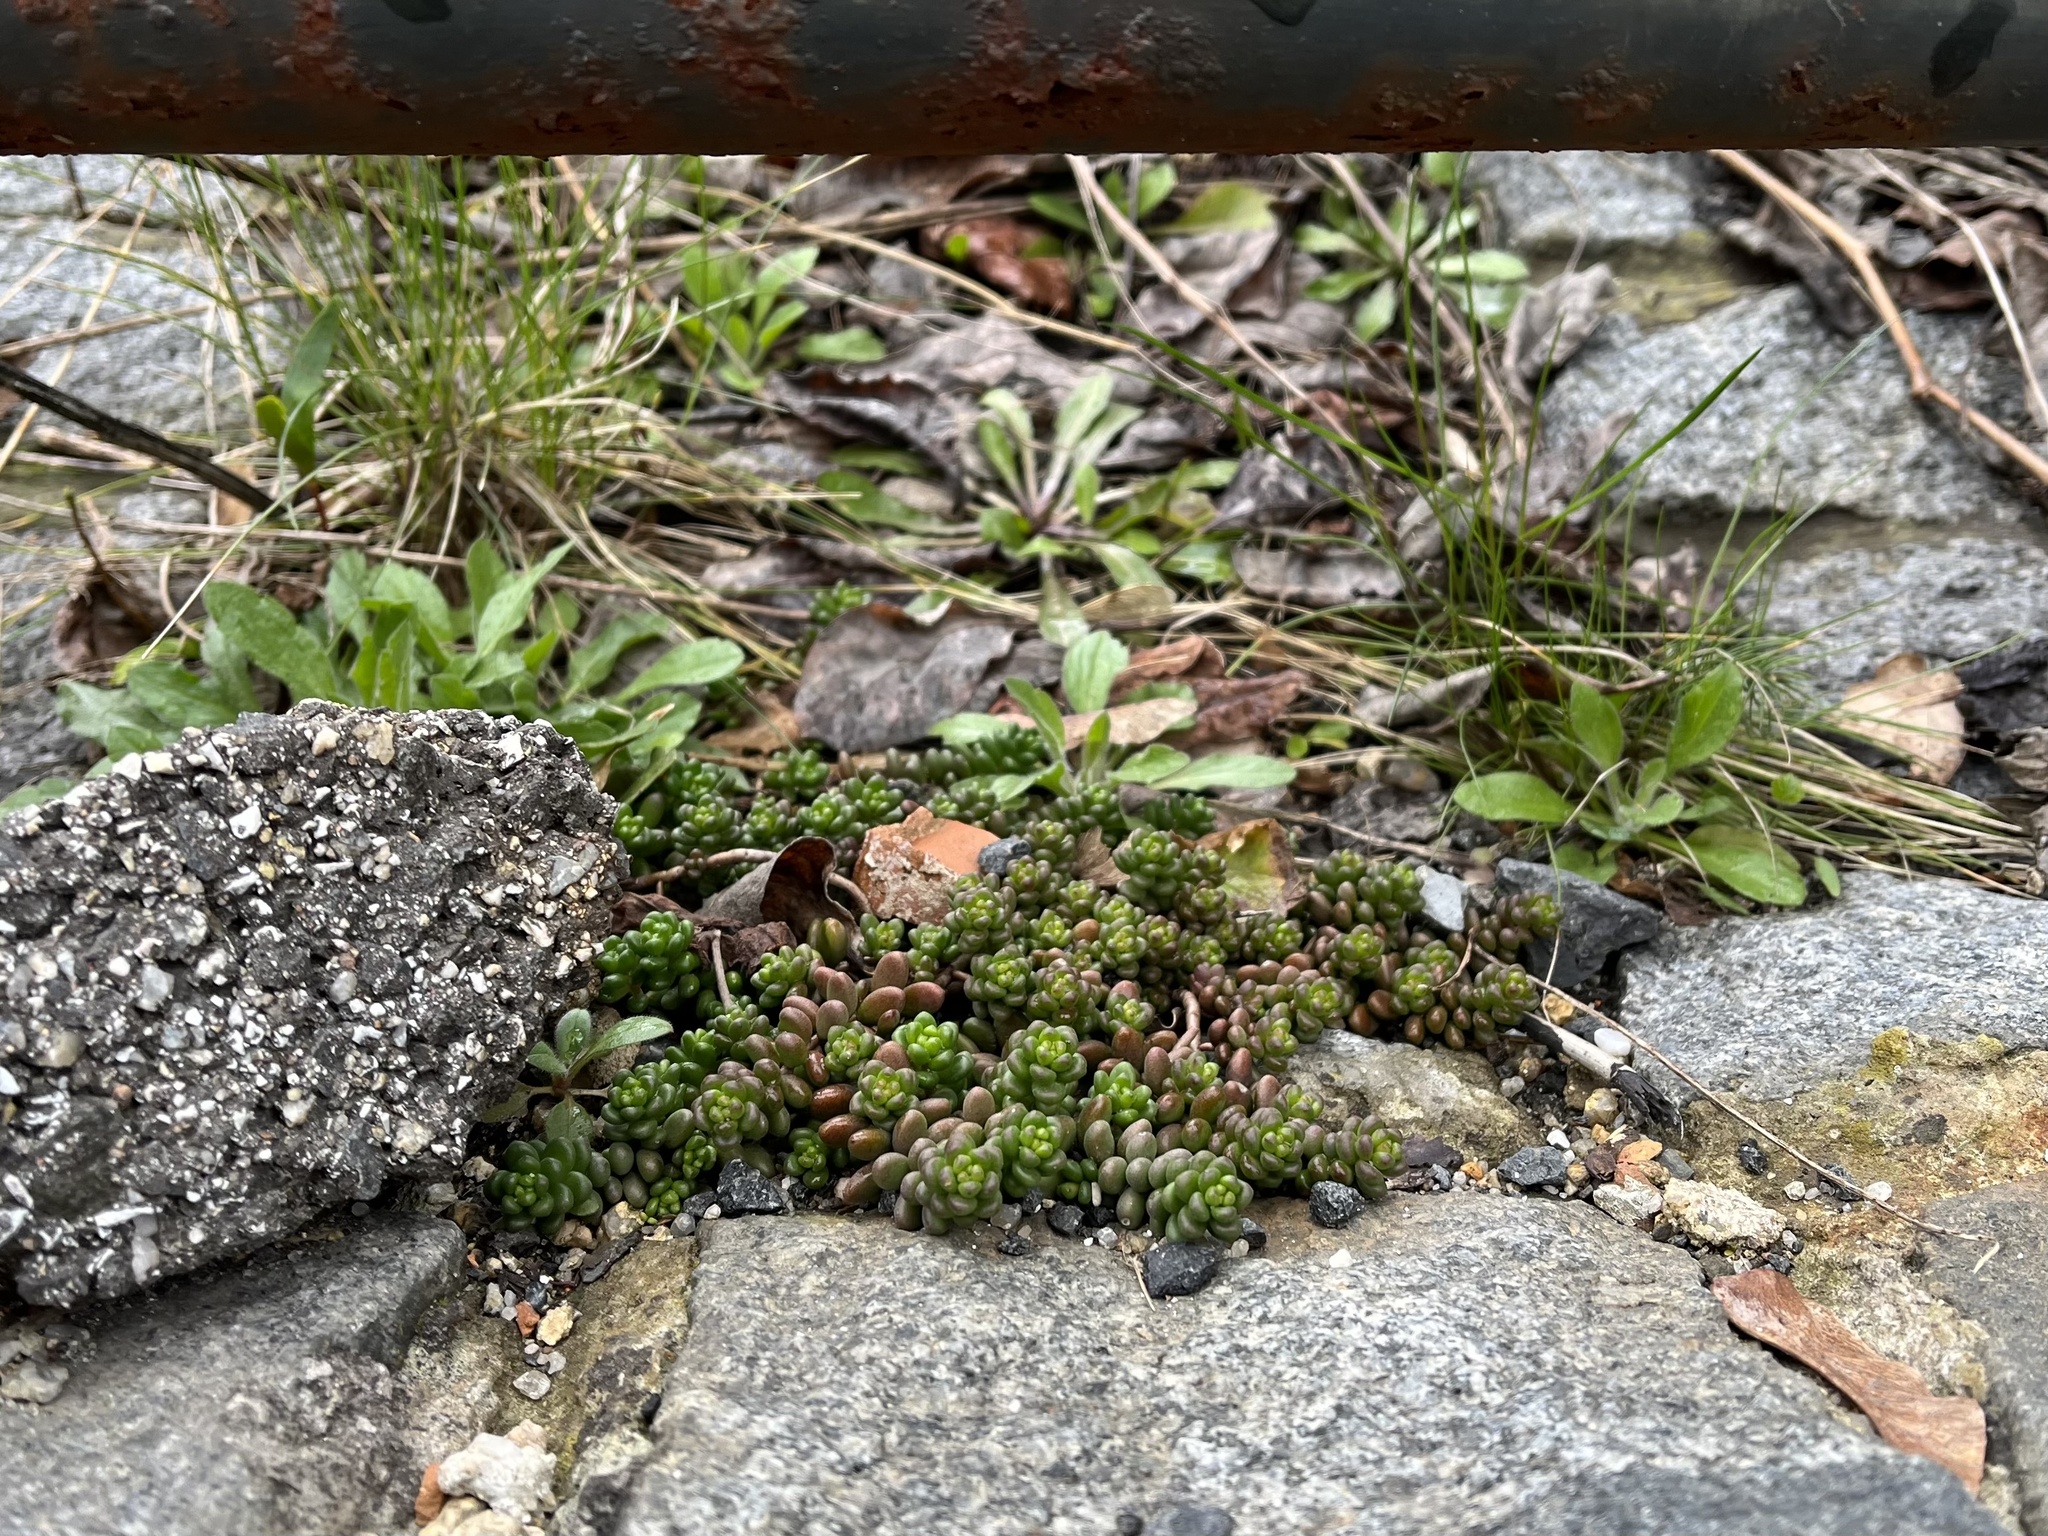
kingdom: Plantae
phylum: Tracheophyta
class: Magnoliopsida
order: Saxifragales
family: Crassulaceae
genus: Sedum
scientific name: Sedum album
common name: White stonecrop
